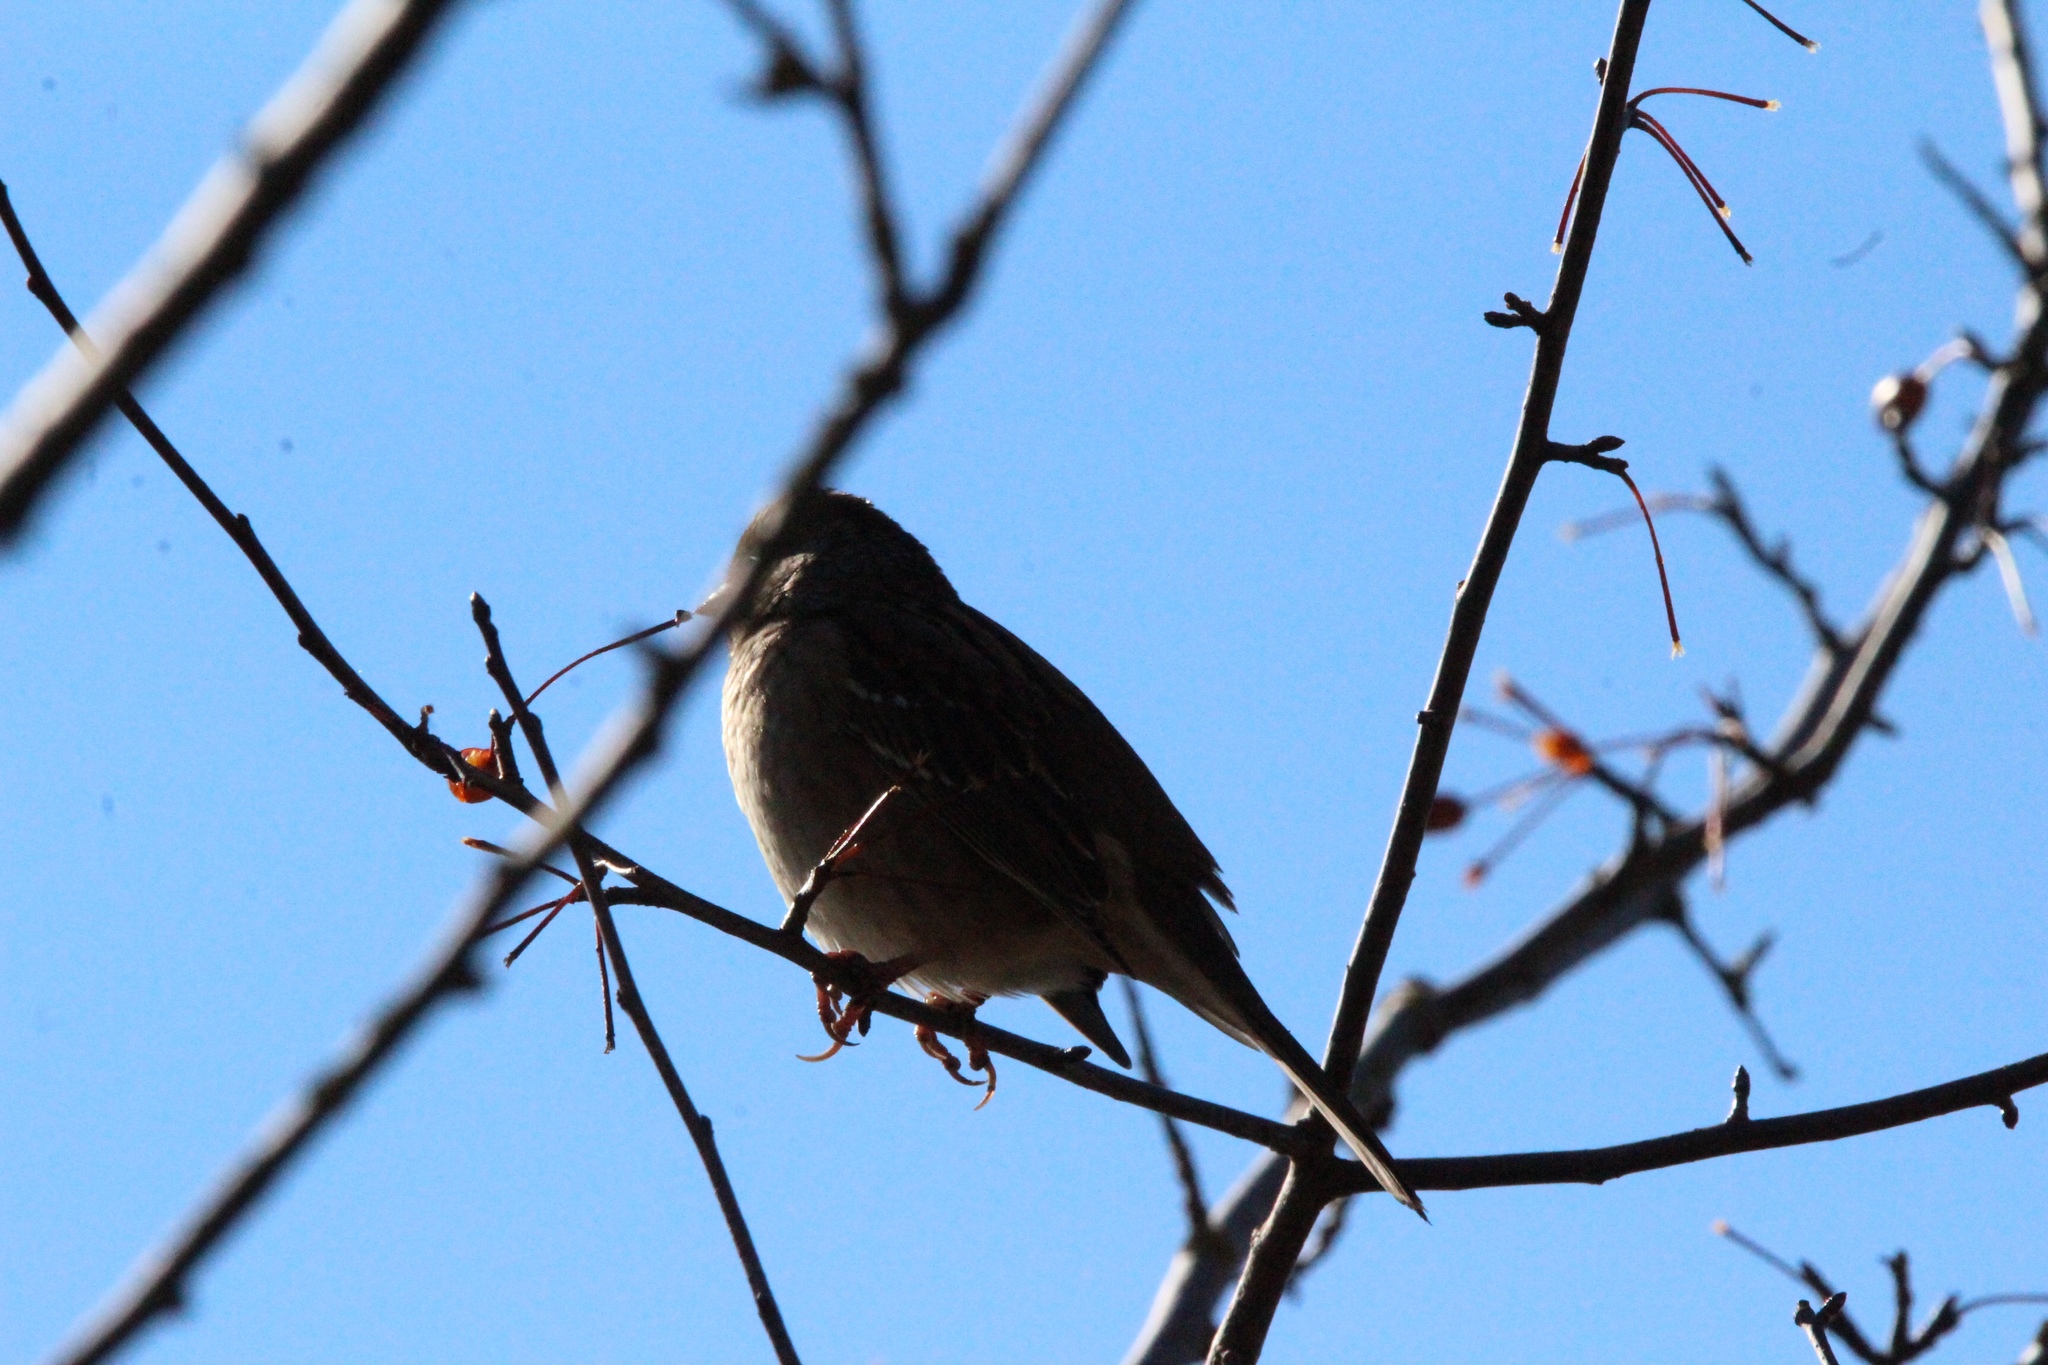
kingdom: Animalia
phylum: Chordata
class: Aves
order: Passeriformes
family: Passerellidae
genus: Zonotrichia
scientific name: Zonotrichia atricapilla
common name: Golden-crowned sparrow
